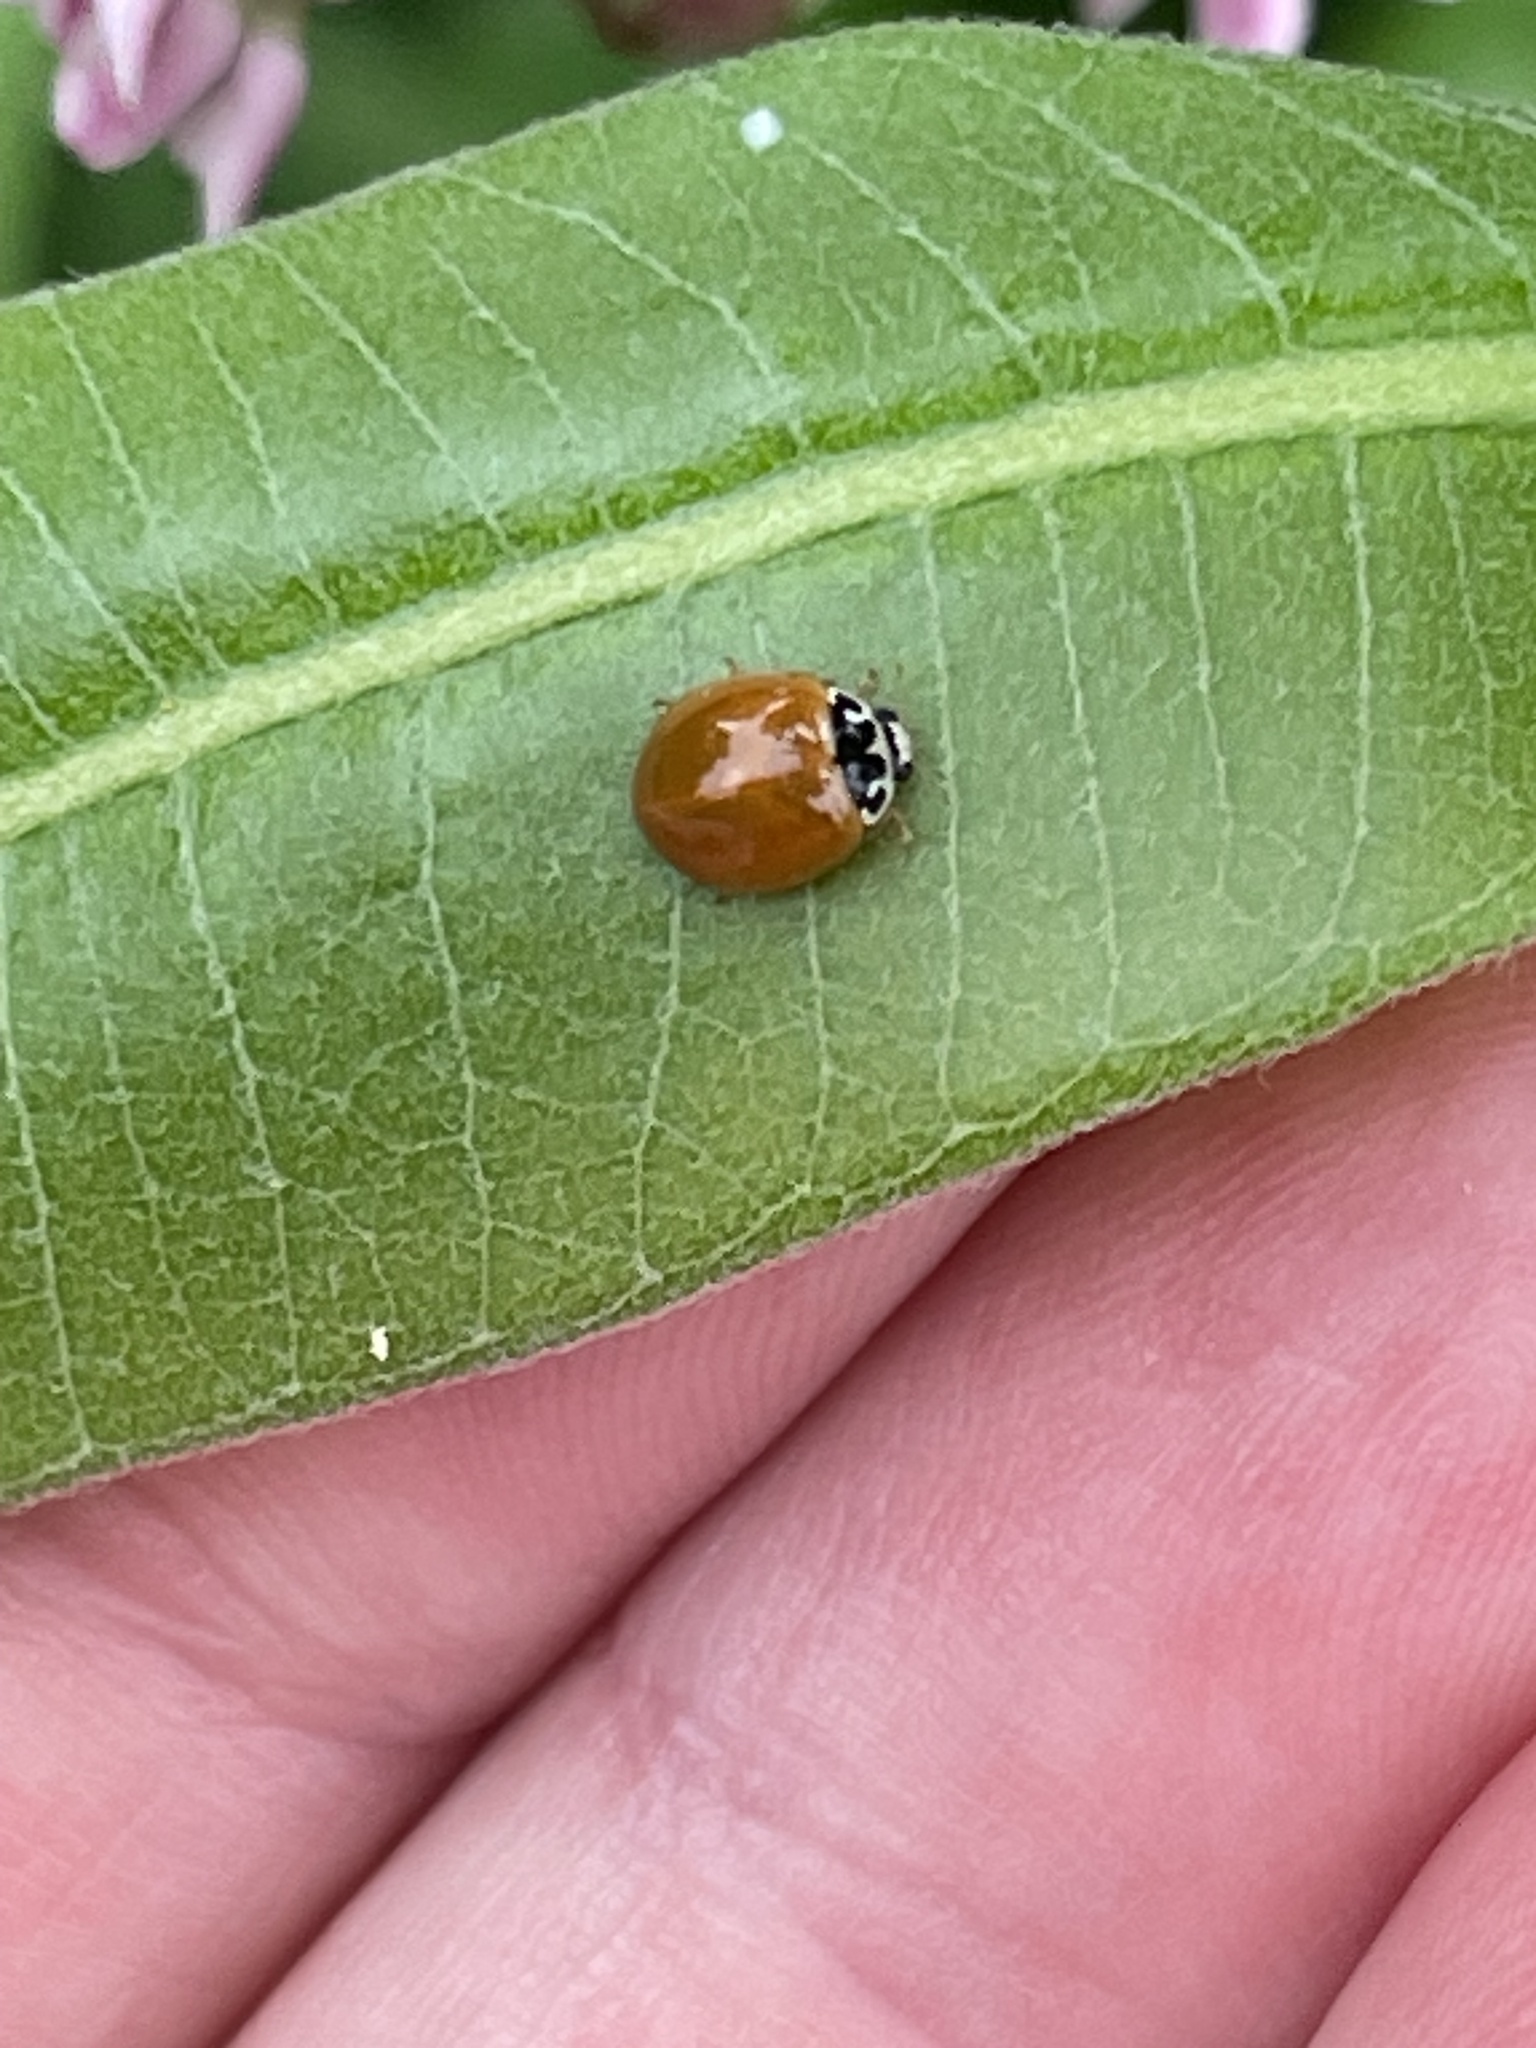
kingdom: Animalia
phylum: Arthropoda
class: Insecta
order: Coleoptera
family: Coccinellidae
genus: Cycloneda
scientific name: Cycloneda munda
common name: Polished lady beetle
